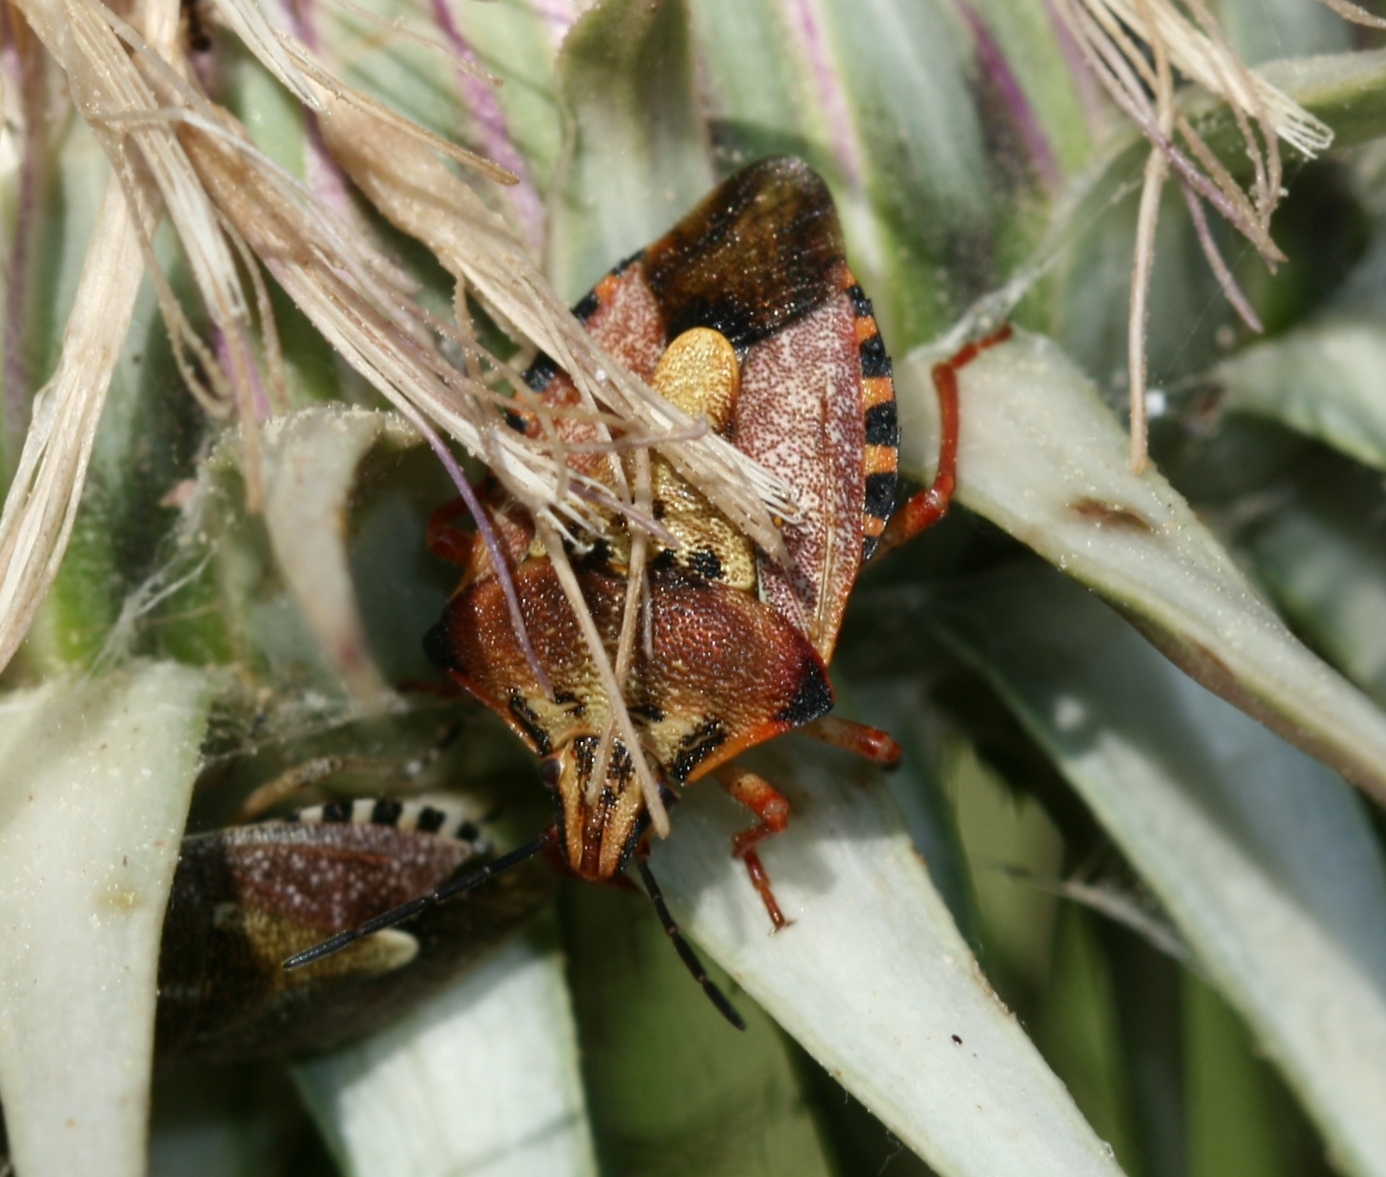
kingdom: Animalia
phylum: Arthropoda
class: Insecta
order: Hemiptera
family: Pentatomidae
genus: Carpocoris
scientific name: Carpocoris mediterraneus
